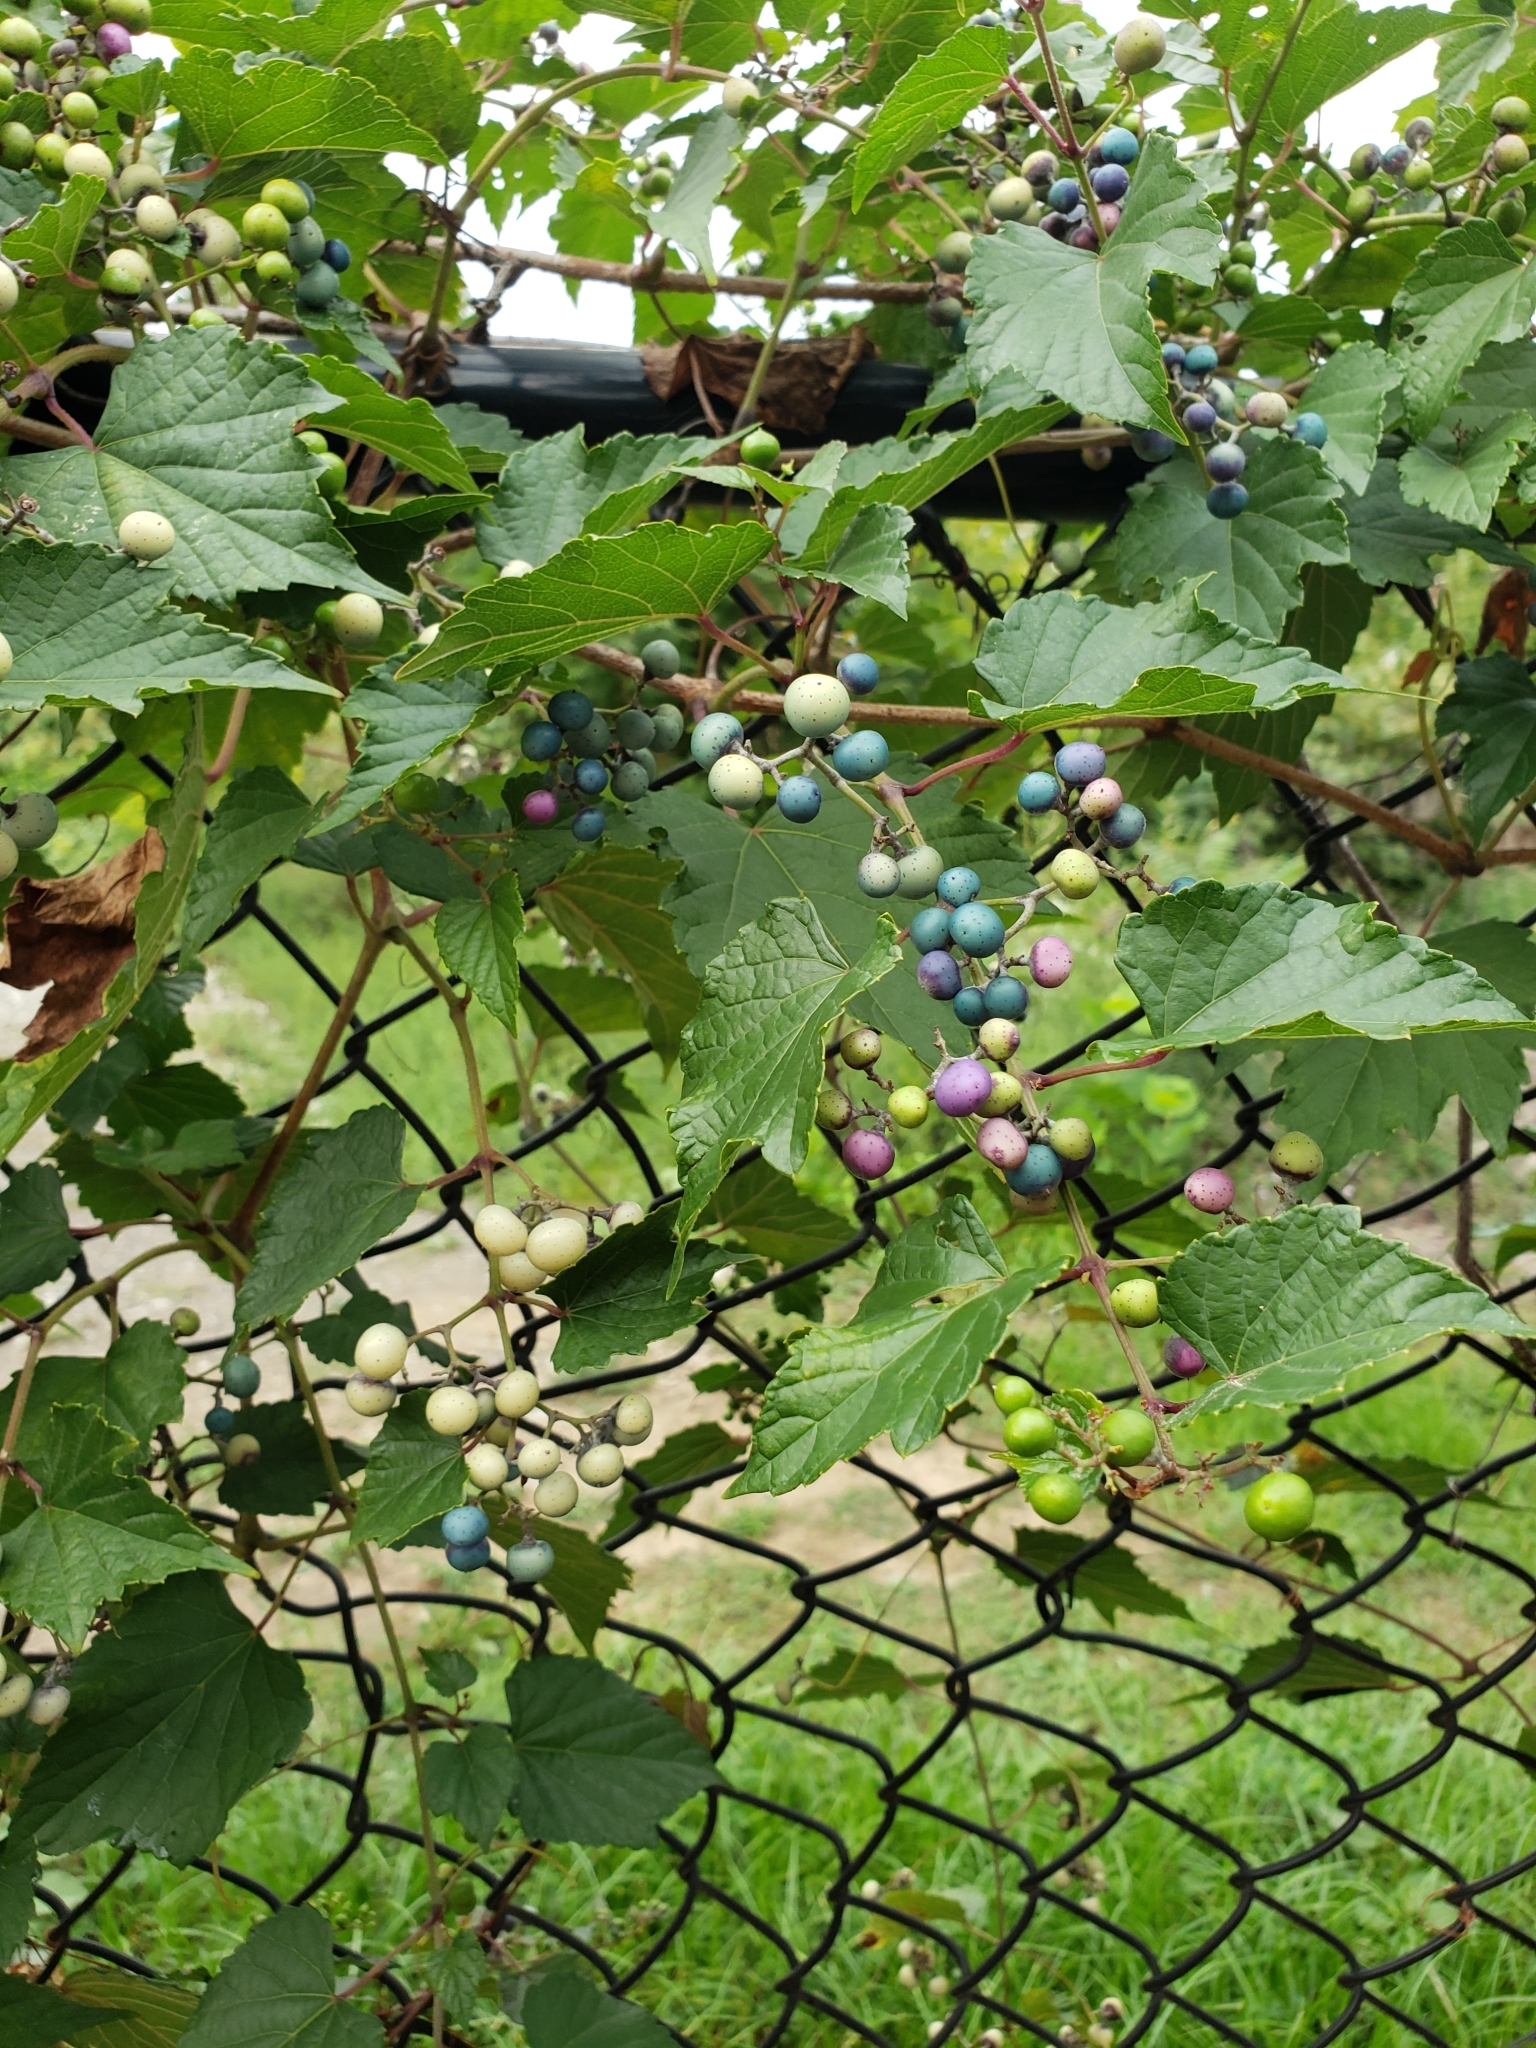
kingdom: Plantae
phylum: Tracheophyta
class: Magnoliopsida
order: Vitales
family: Vitaceae
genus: Ampelopsis
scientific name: Ampelopsis glandulosa
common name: Amur peppervine
